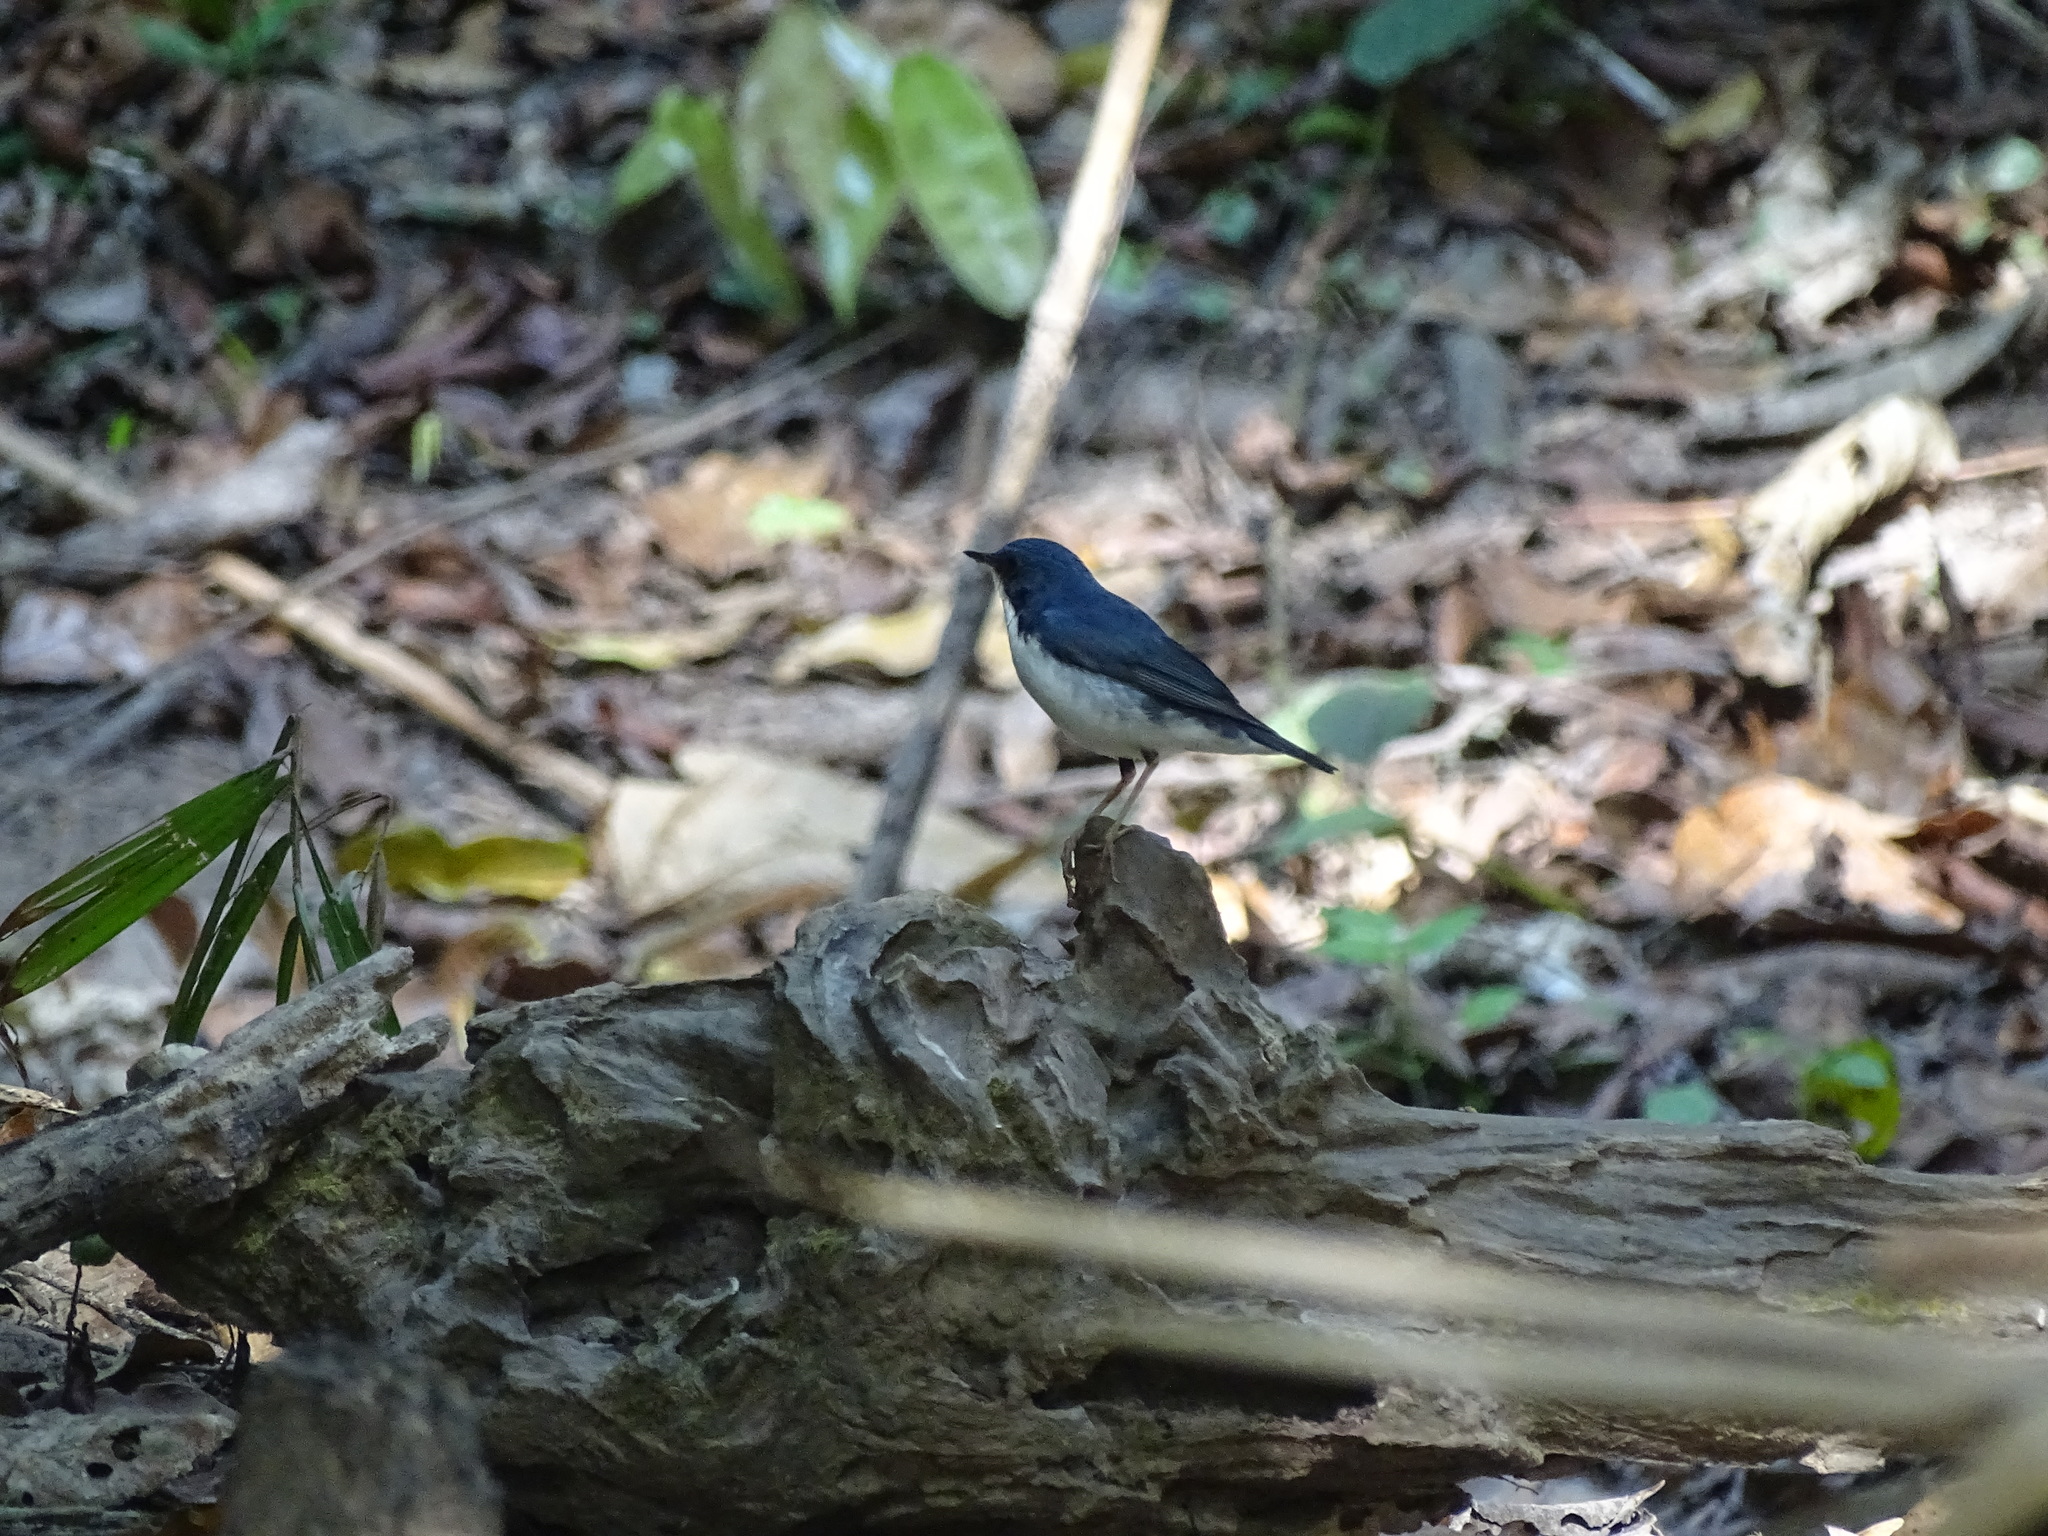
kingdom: Animalia
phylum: Chordata
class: Aves
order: Passeriformes
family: Muscicapidae
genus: Luscinia
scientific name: Luscinia cyane
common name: Siberian blue robin
